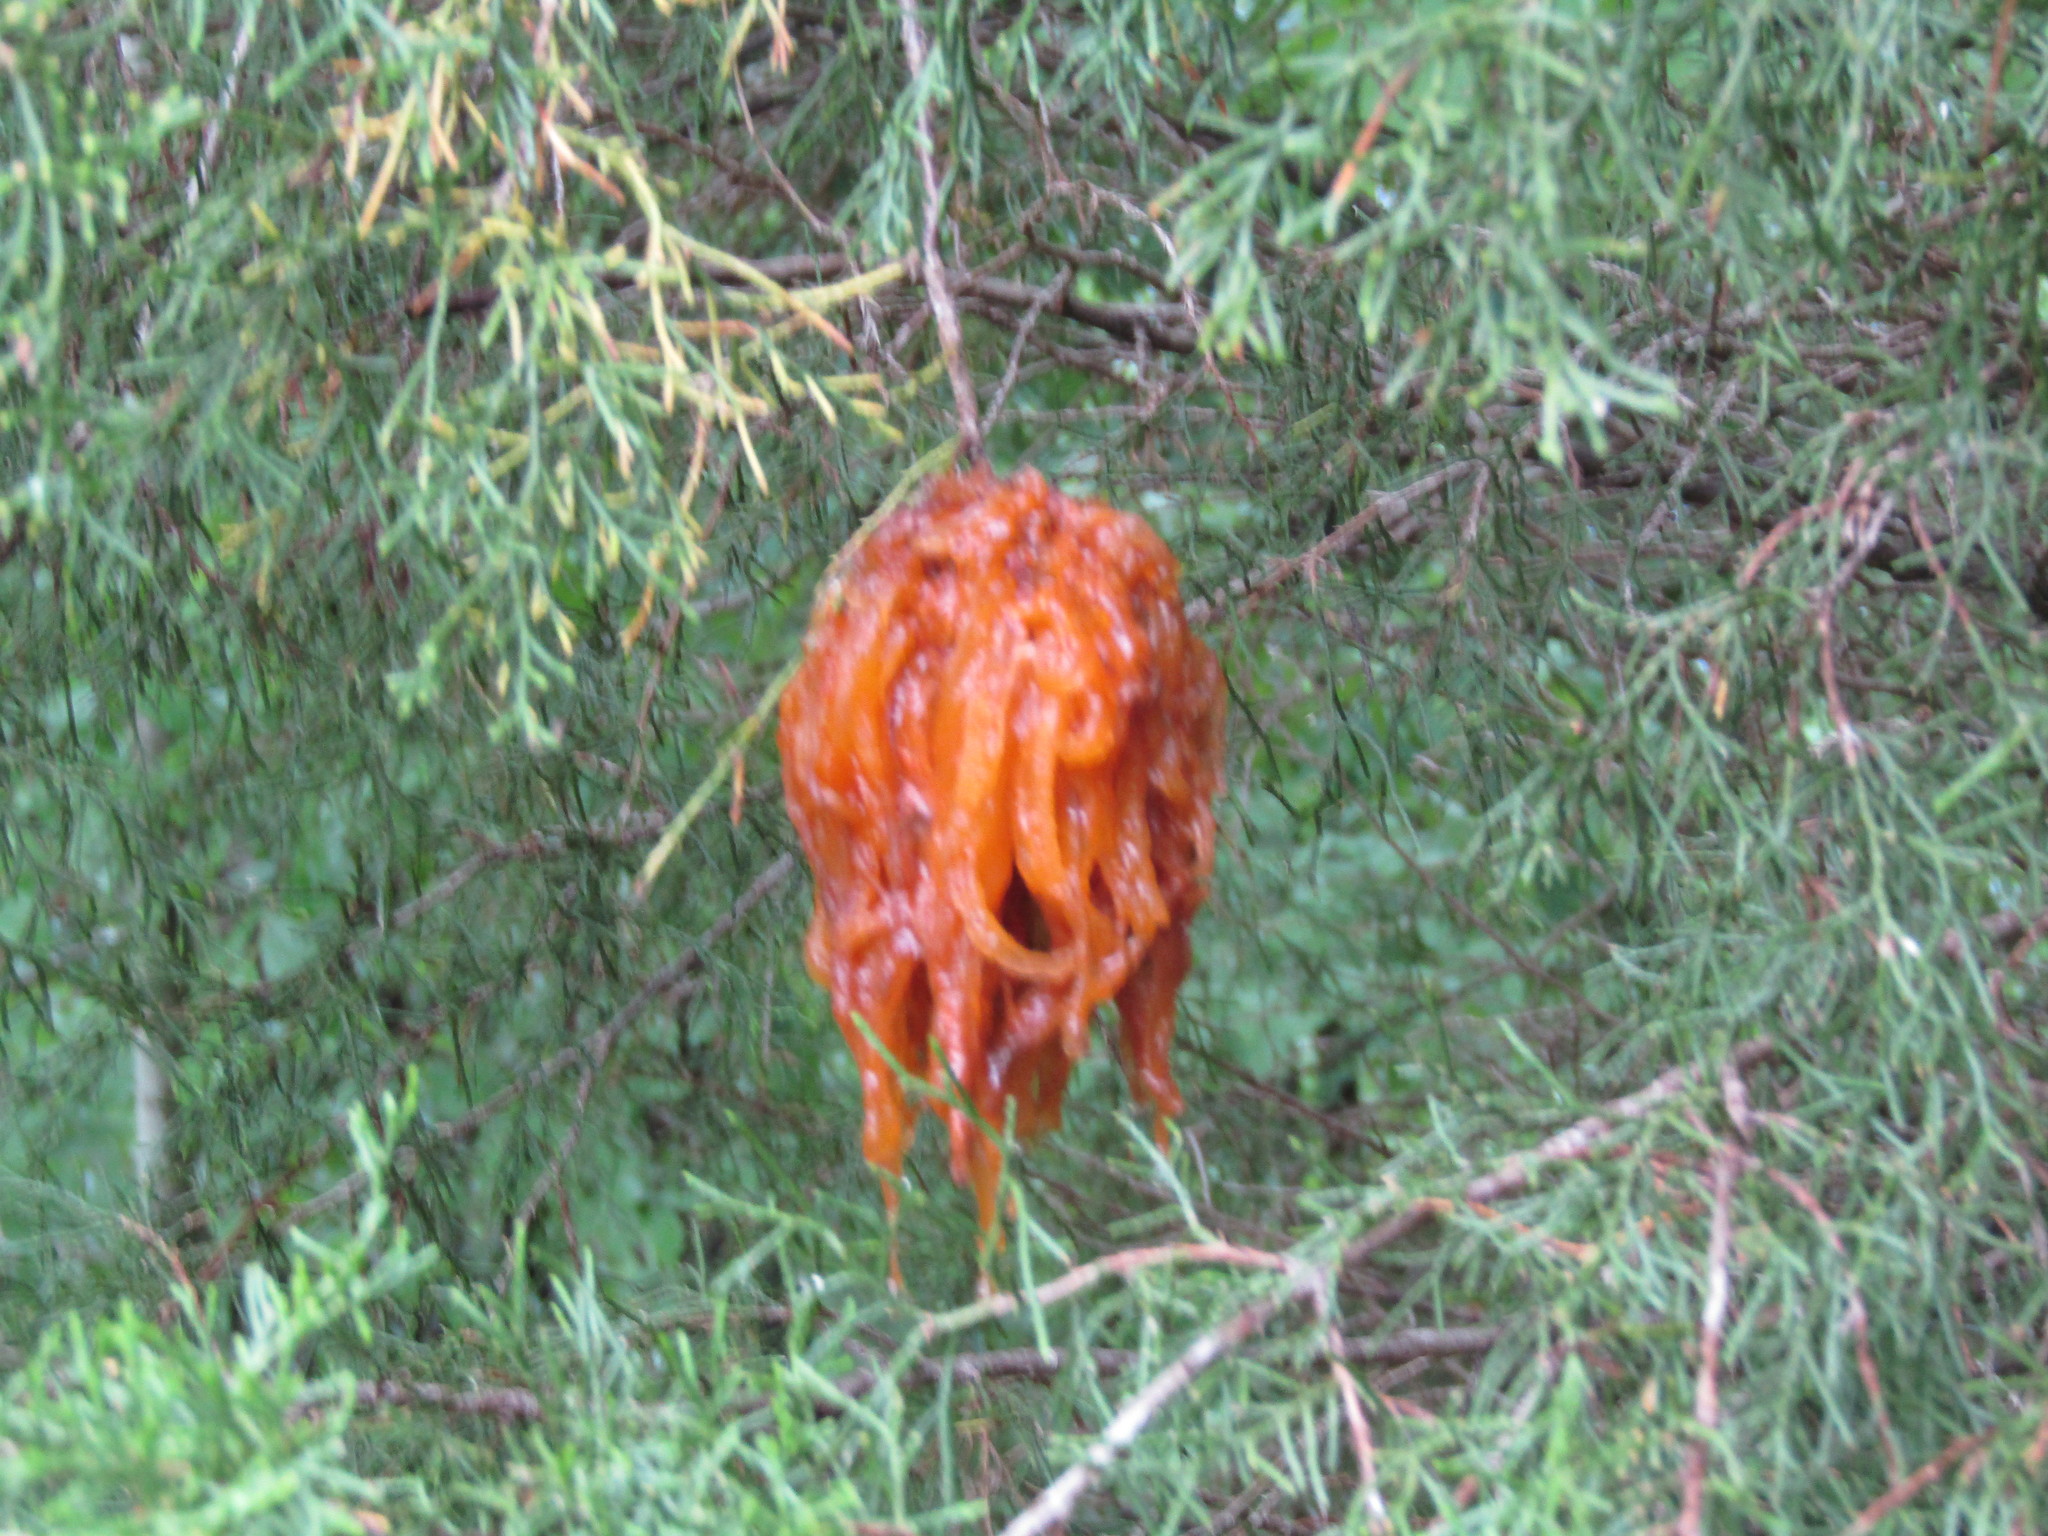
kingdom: Fungi
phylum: Basidiomycota
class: Pucciniomycetes
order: Pucciniales
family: Gymnosporangiaceae
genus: Gymnosporangium
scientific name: Gymnosporangium juniperi-virginianae
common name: Juniper-apple rust
